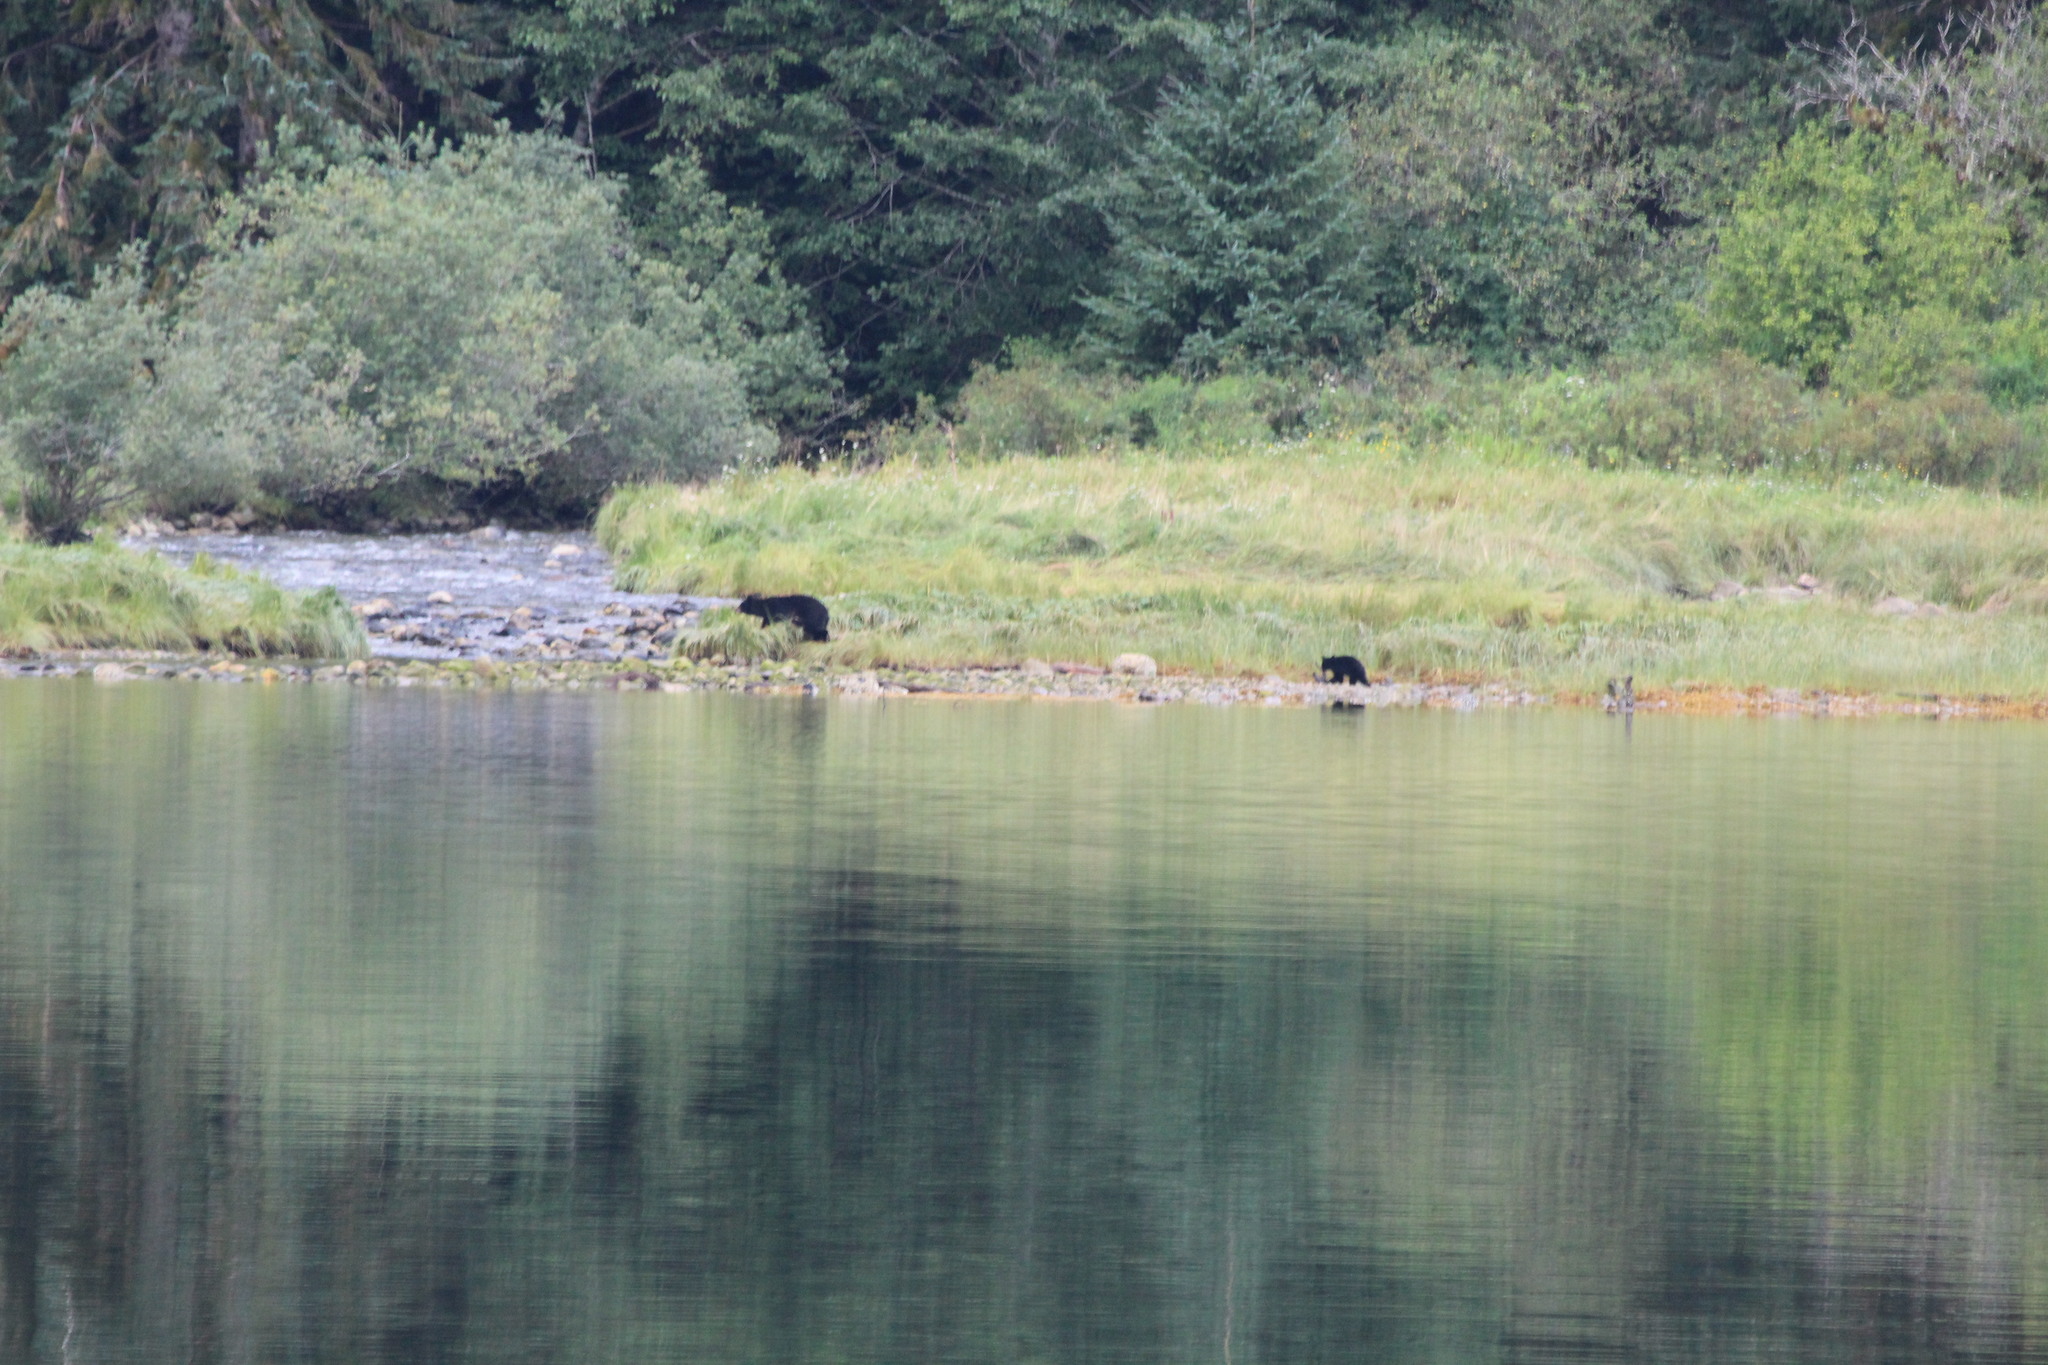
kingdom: Animalia
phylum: Chordata
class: Mammalia
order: Carnivora
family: Ursidae
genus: Ursus
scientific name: Ursus americanus
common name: American black bear
